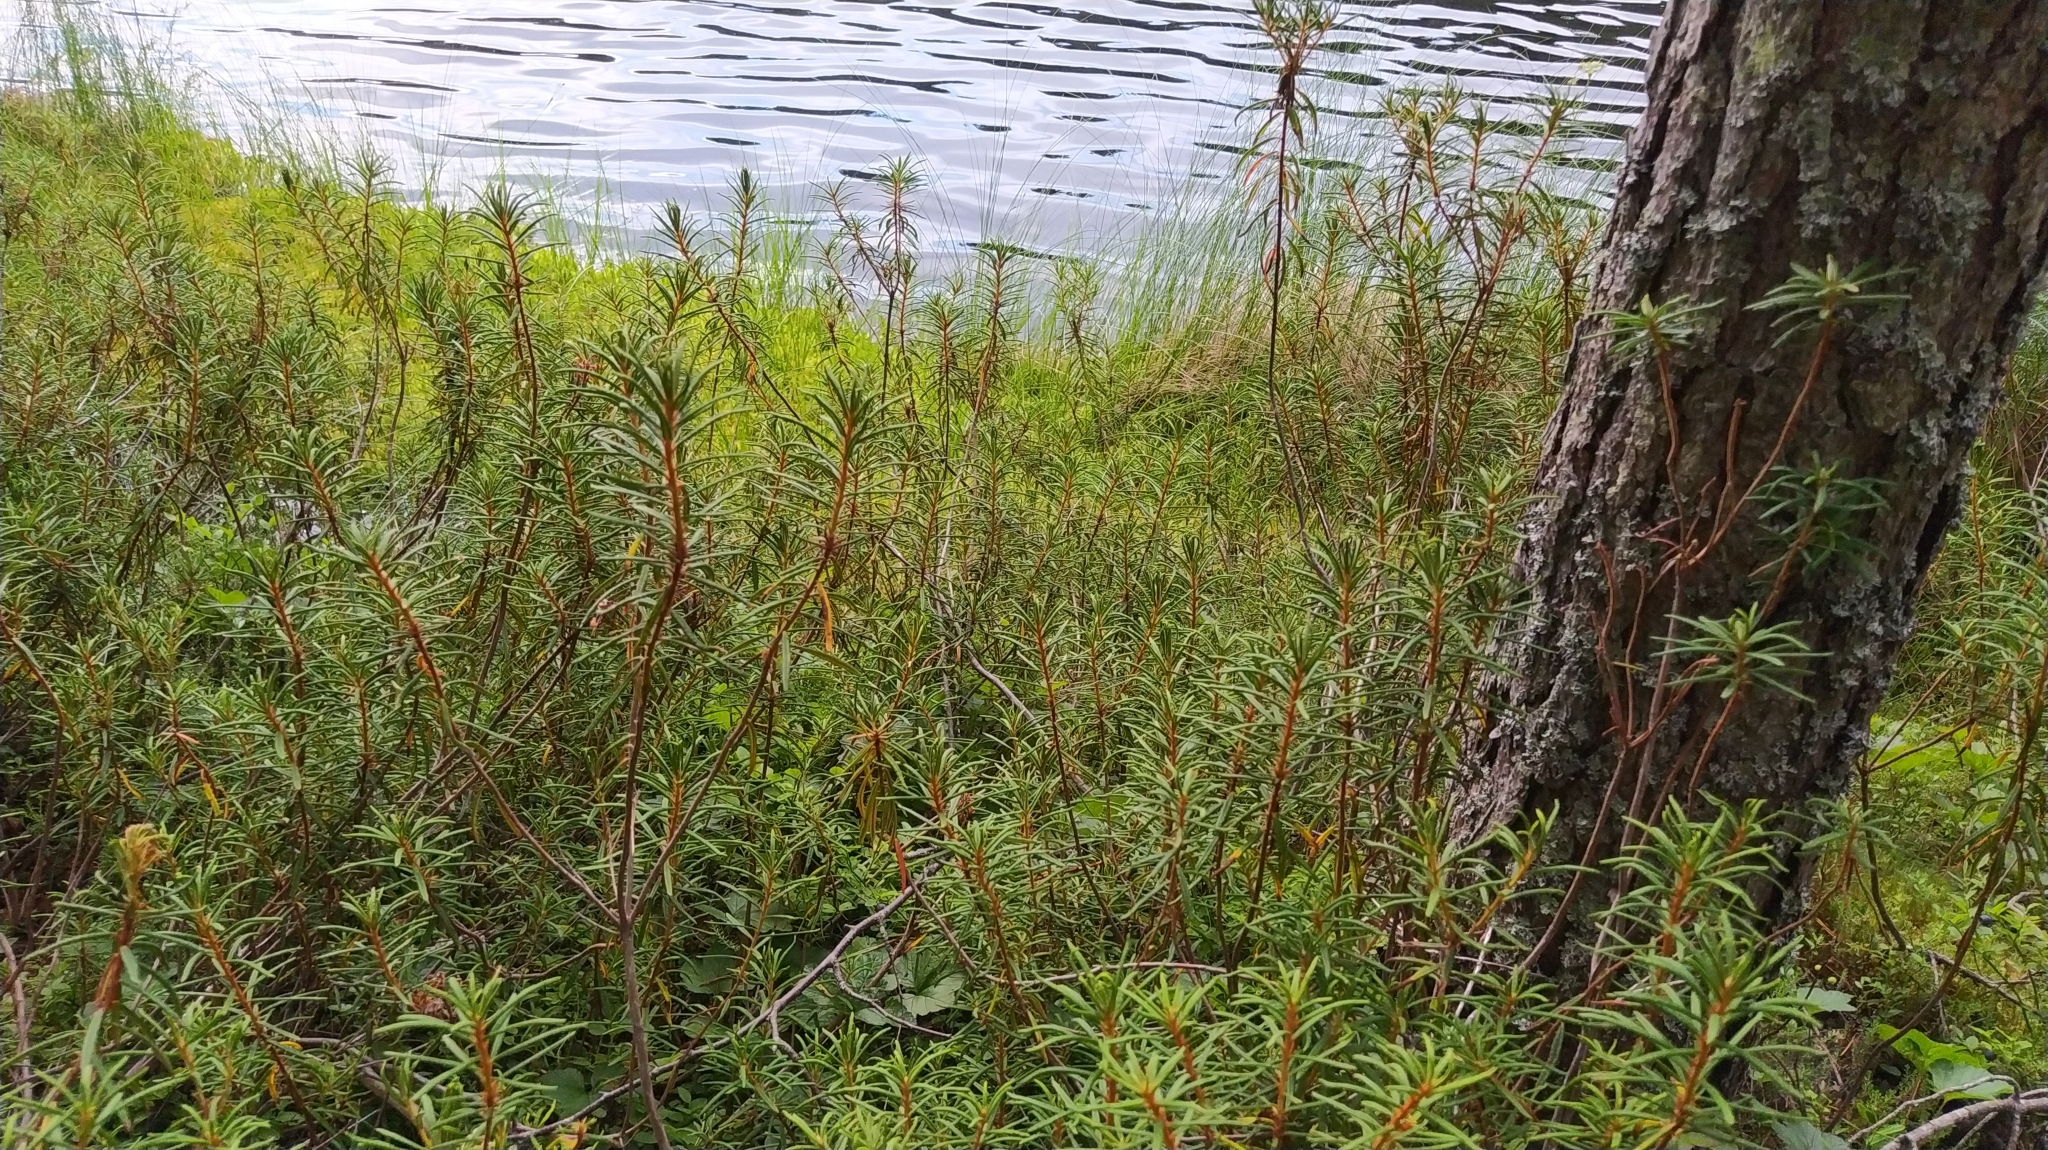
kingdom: Plantae
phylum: Tracheophyta
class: Magnoliopsida
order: Ericales
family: Ericaceae
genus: Rhododendron
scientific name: Rhododendron tomentosum
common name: Marsh labrador tea
